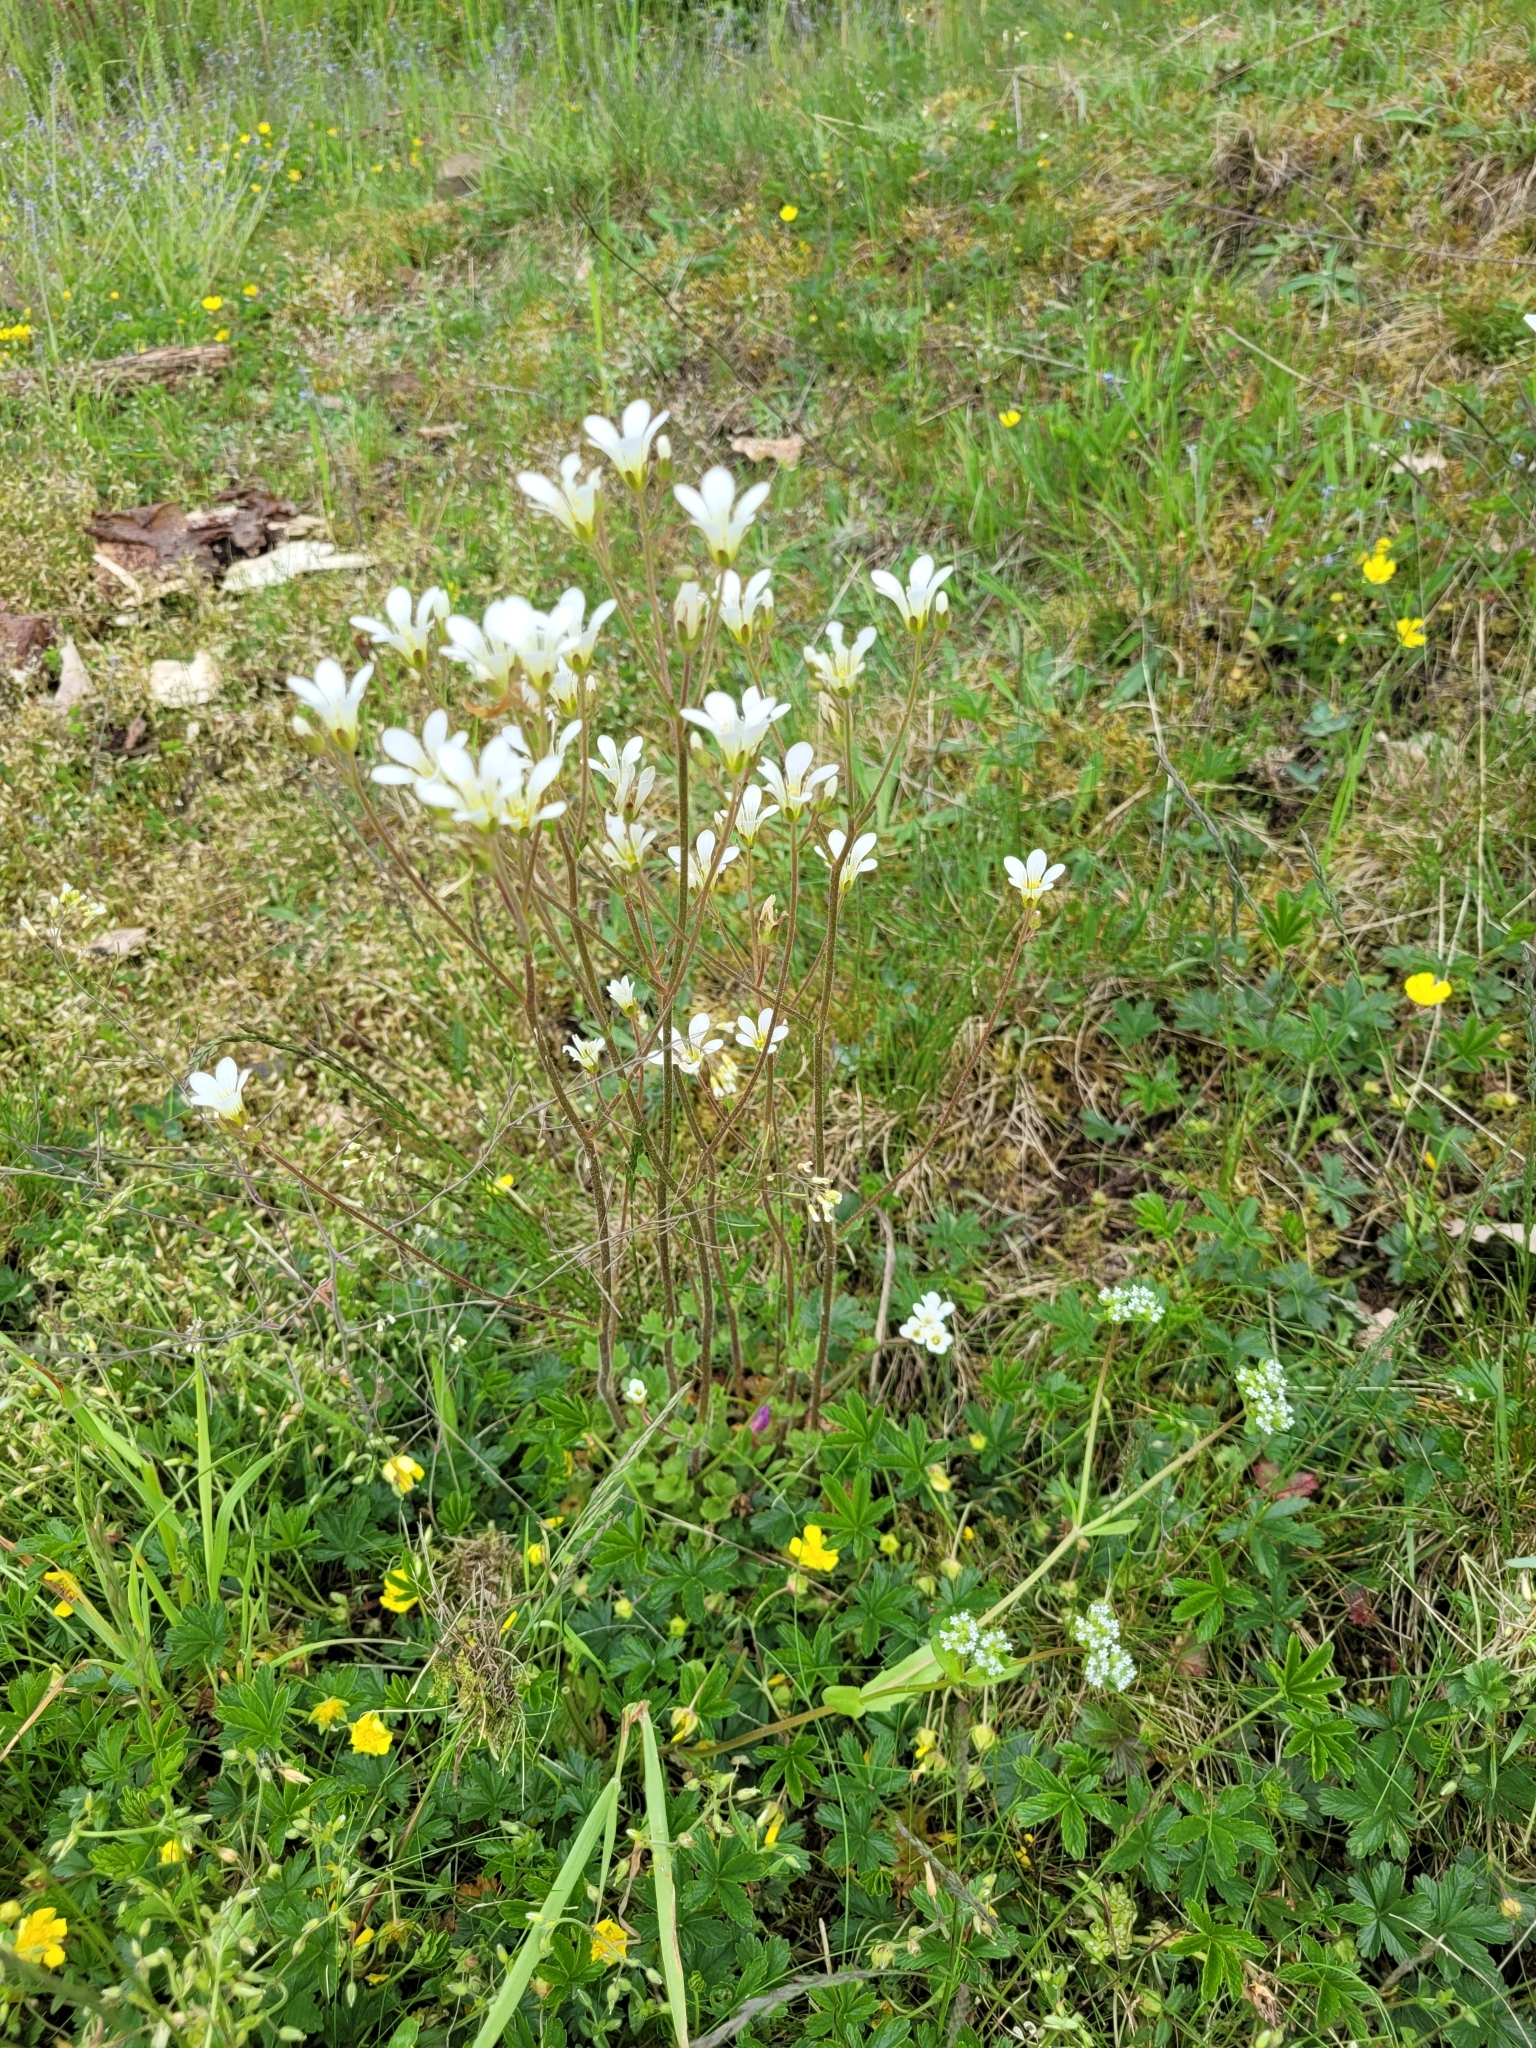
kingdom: Plantae
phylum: Tracheophyta
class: Magnoliopsida
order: Saxifragales
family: Saxifragaceae
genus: Saxifraga
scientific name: Saxifraga granulata
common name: Meadow saxifrage
